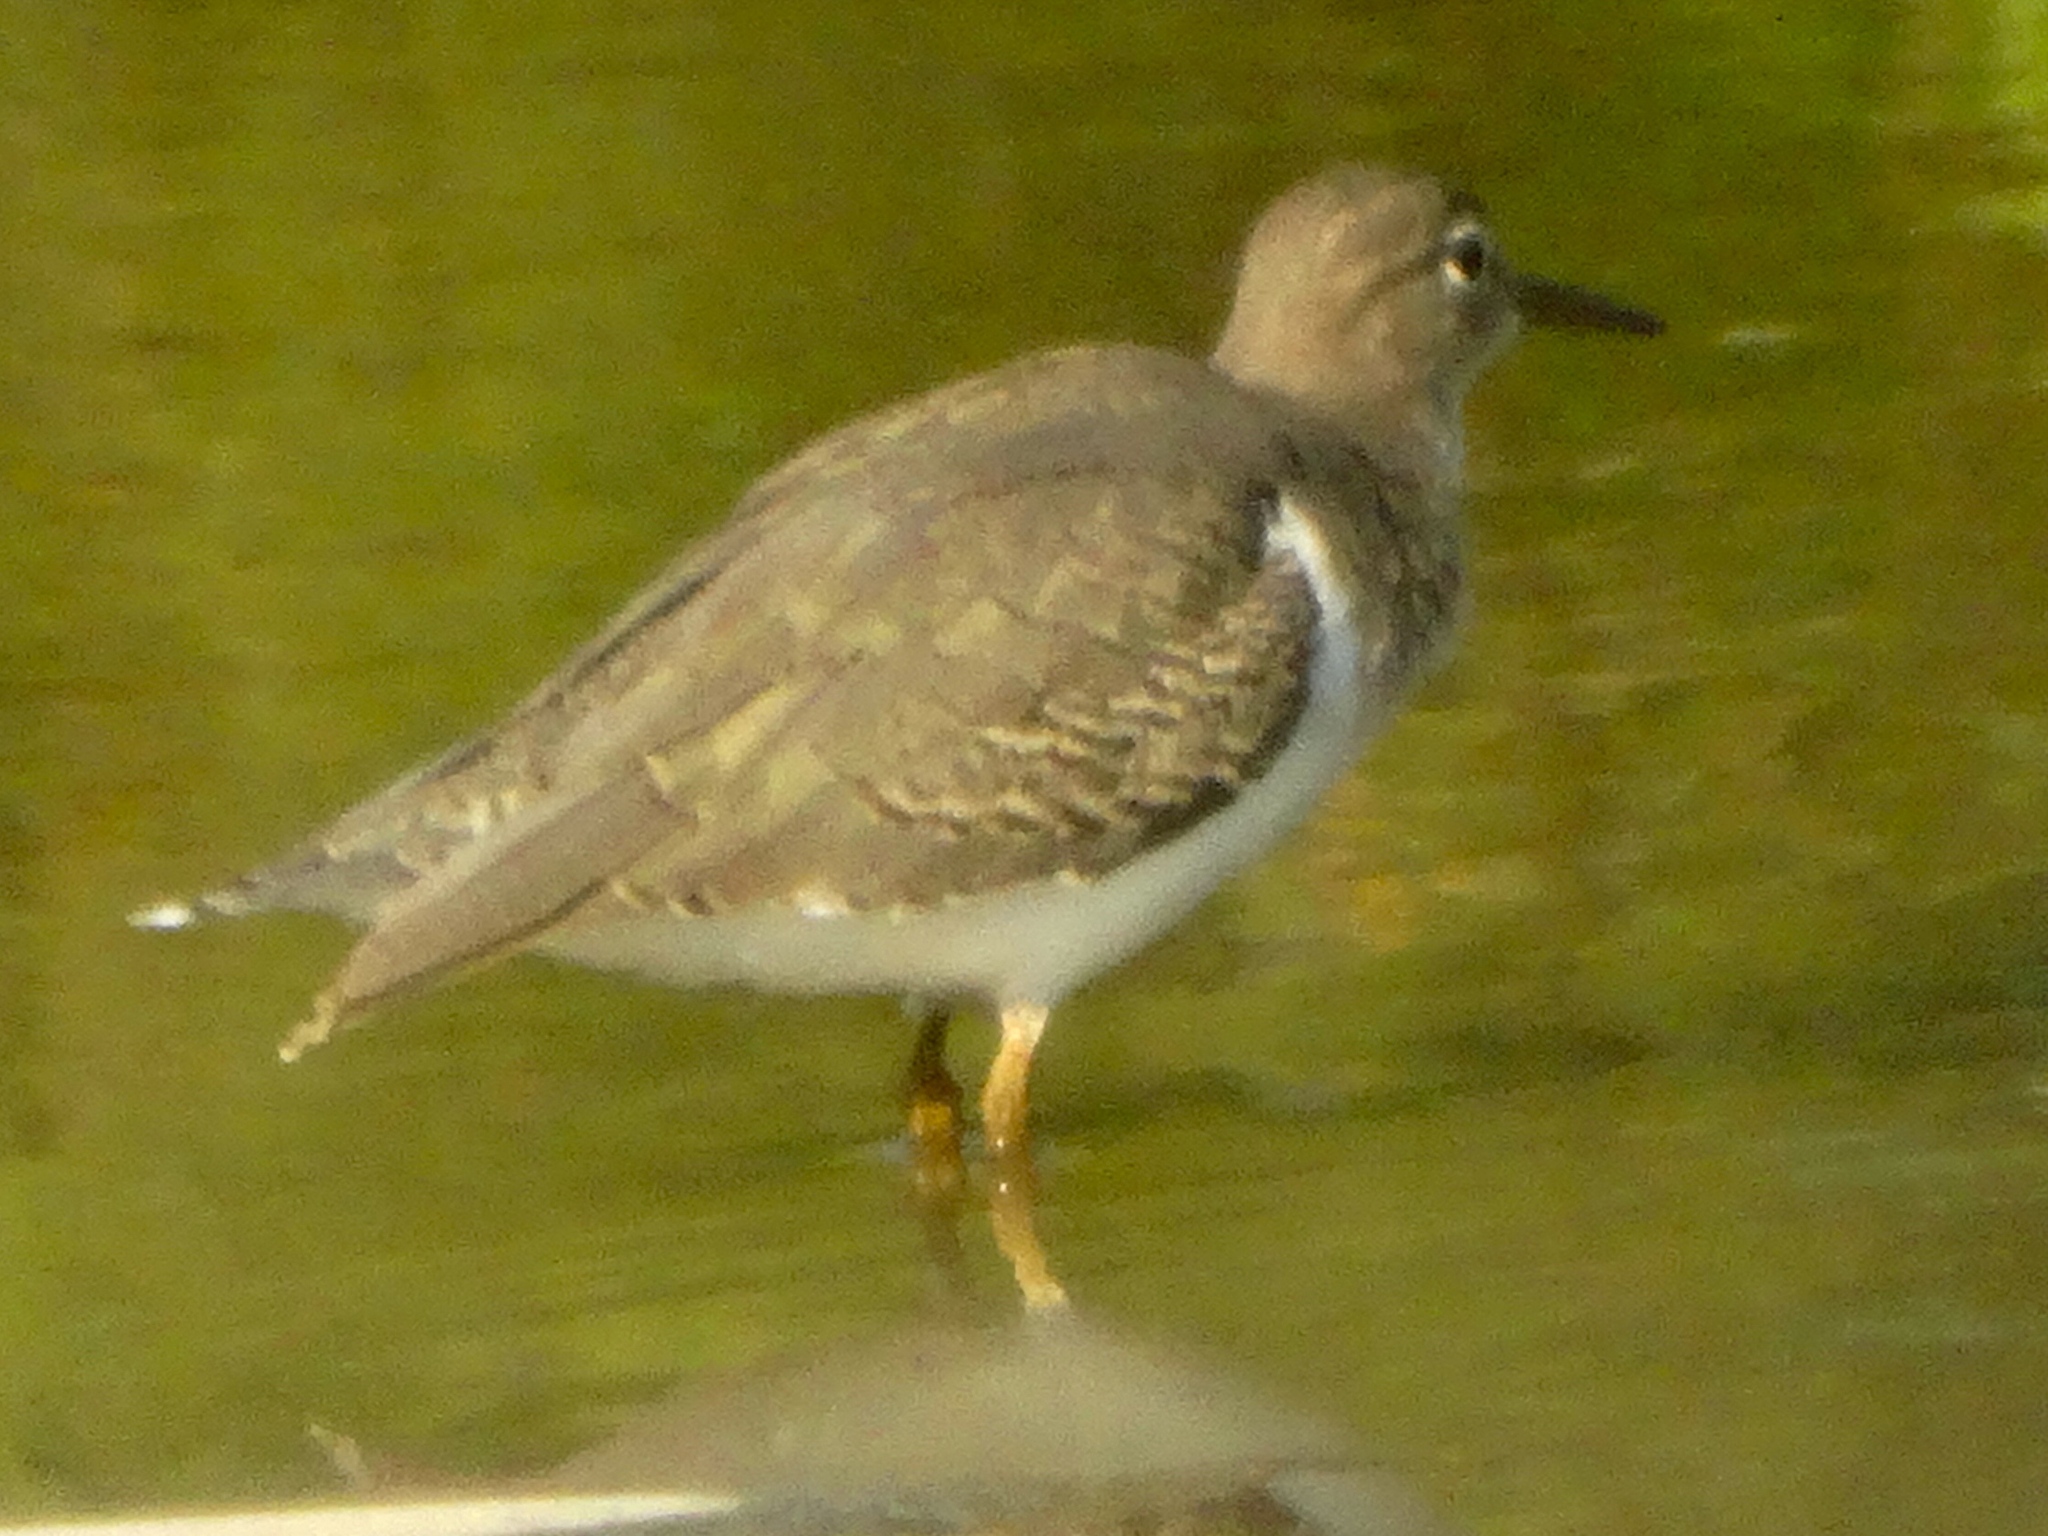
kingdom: Animalia
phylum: Chordata
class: Aves
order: Charadriiformes
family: Scolopacidae
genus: Actitis
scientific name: Actitis macularius
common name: Spotted sandpiper
